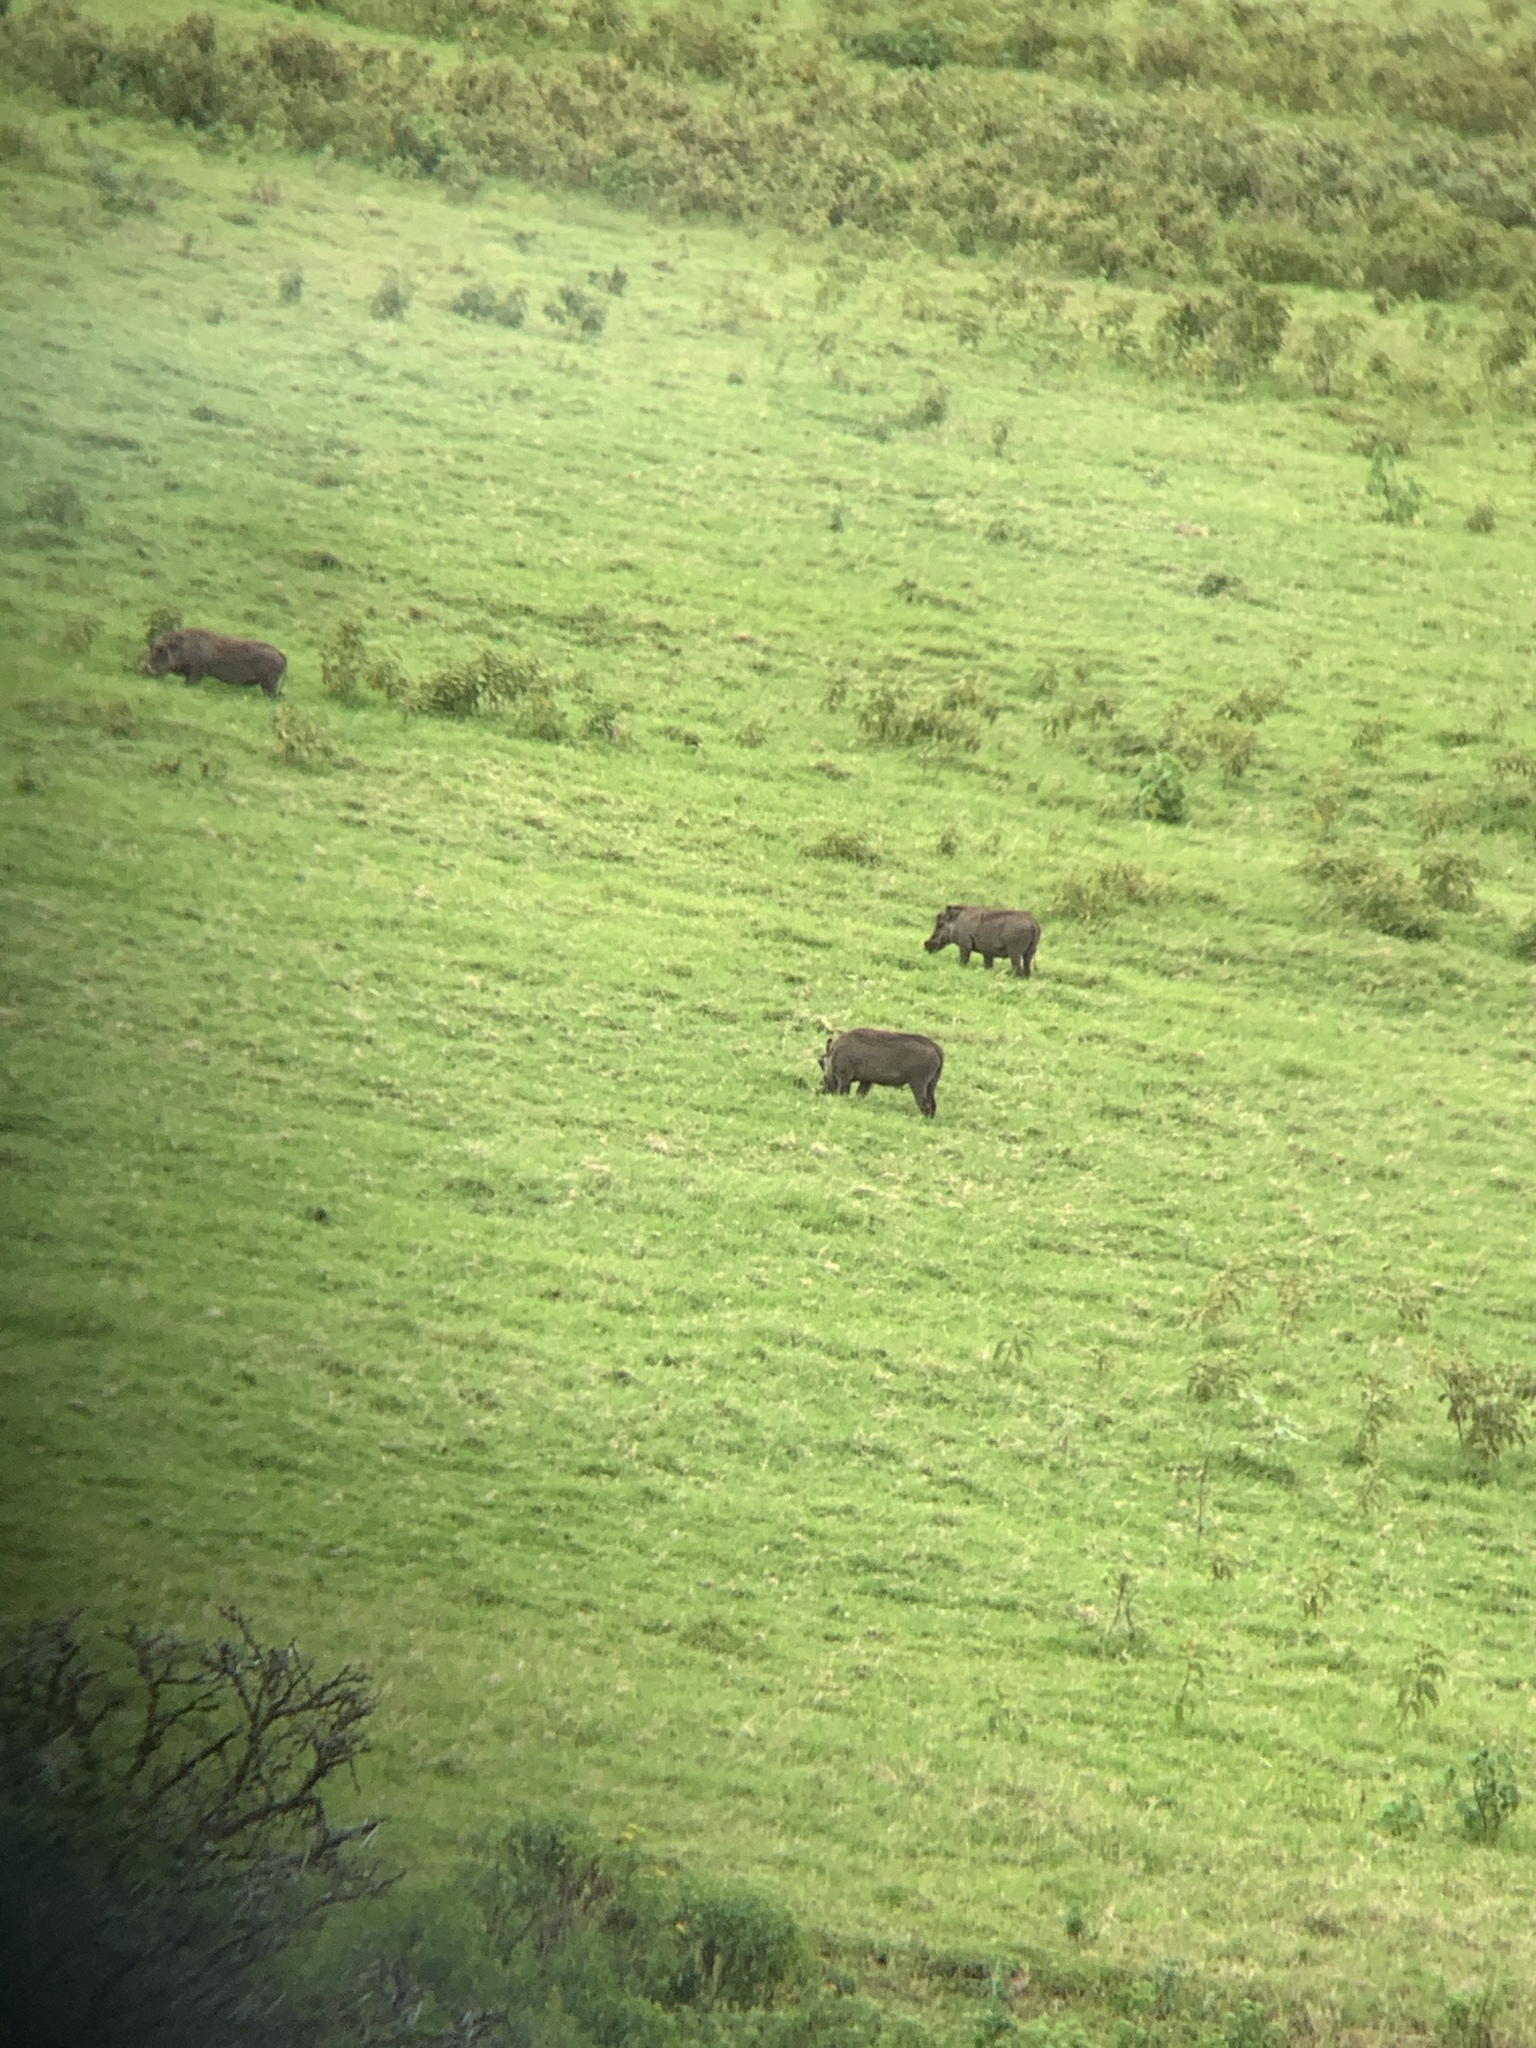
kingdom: Animalia
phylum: Chordata
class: Mammalia
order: Artiodactyla
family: Suidae
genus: Phacochoerus
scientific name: Phacochoerus africanus
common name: Common warthog
